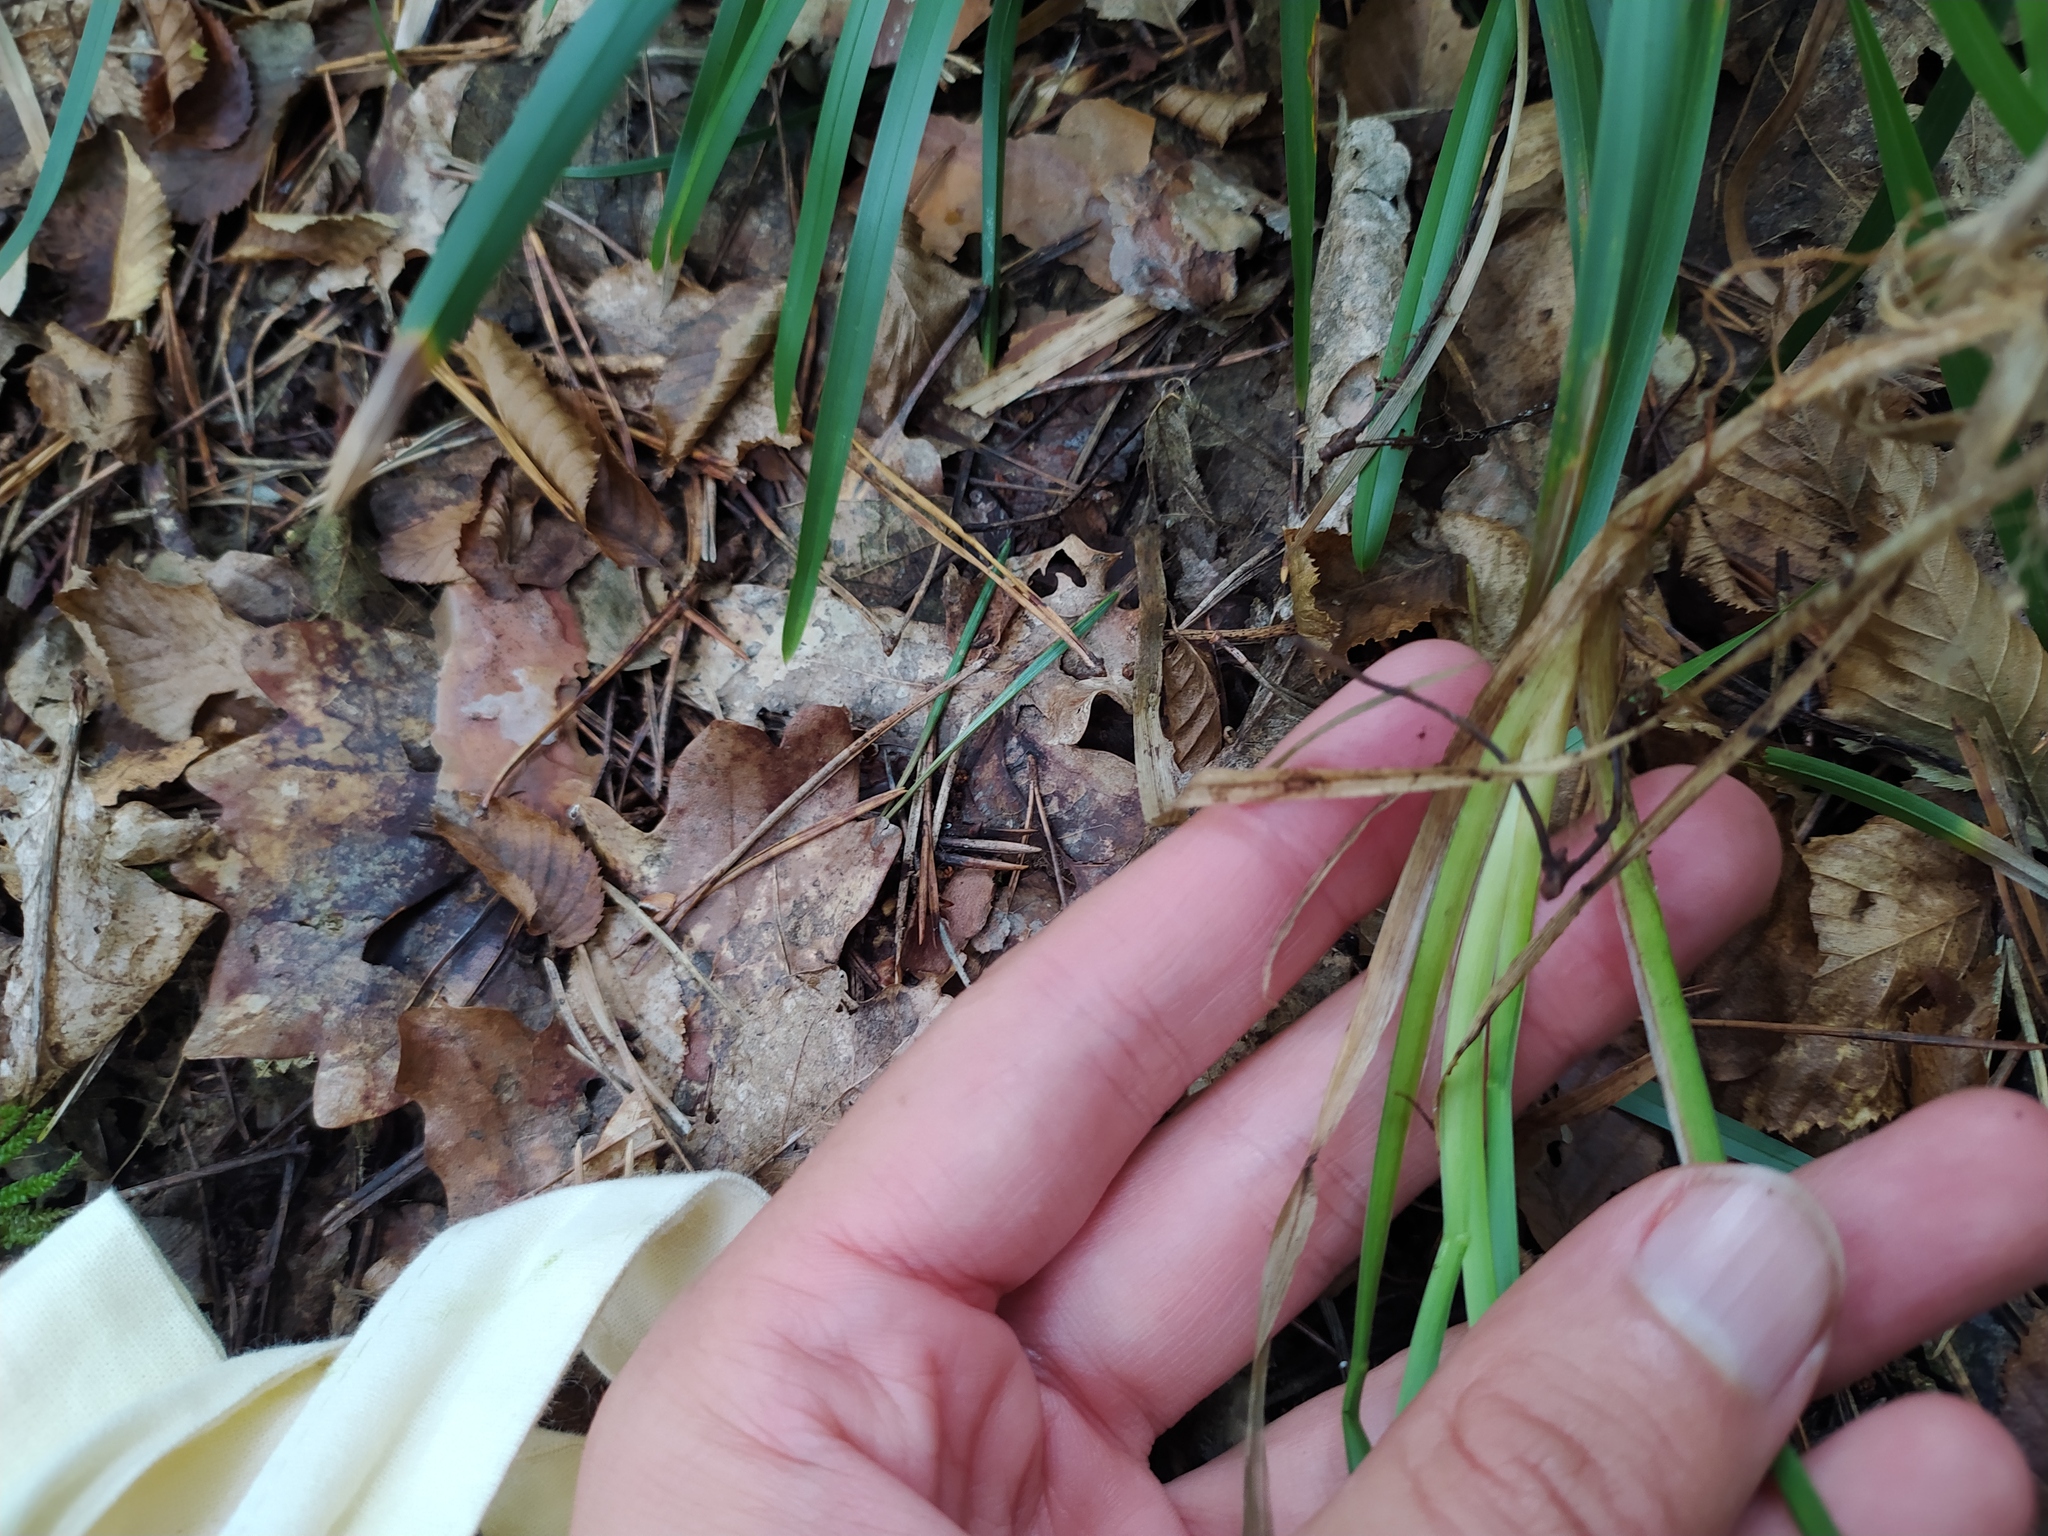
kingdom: Plantae
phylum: Tracheophyta
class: Liliopsida
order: Poales
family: Poaceae
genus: Poa
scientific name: Poa chaixii
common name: Broad-leaved meadow-grass
